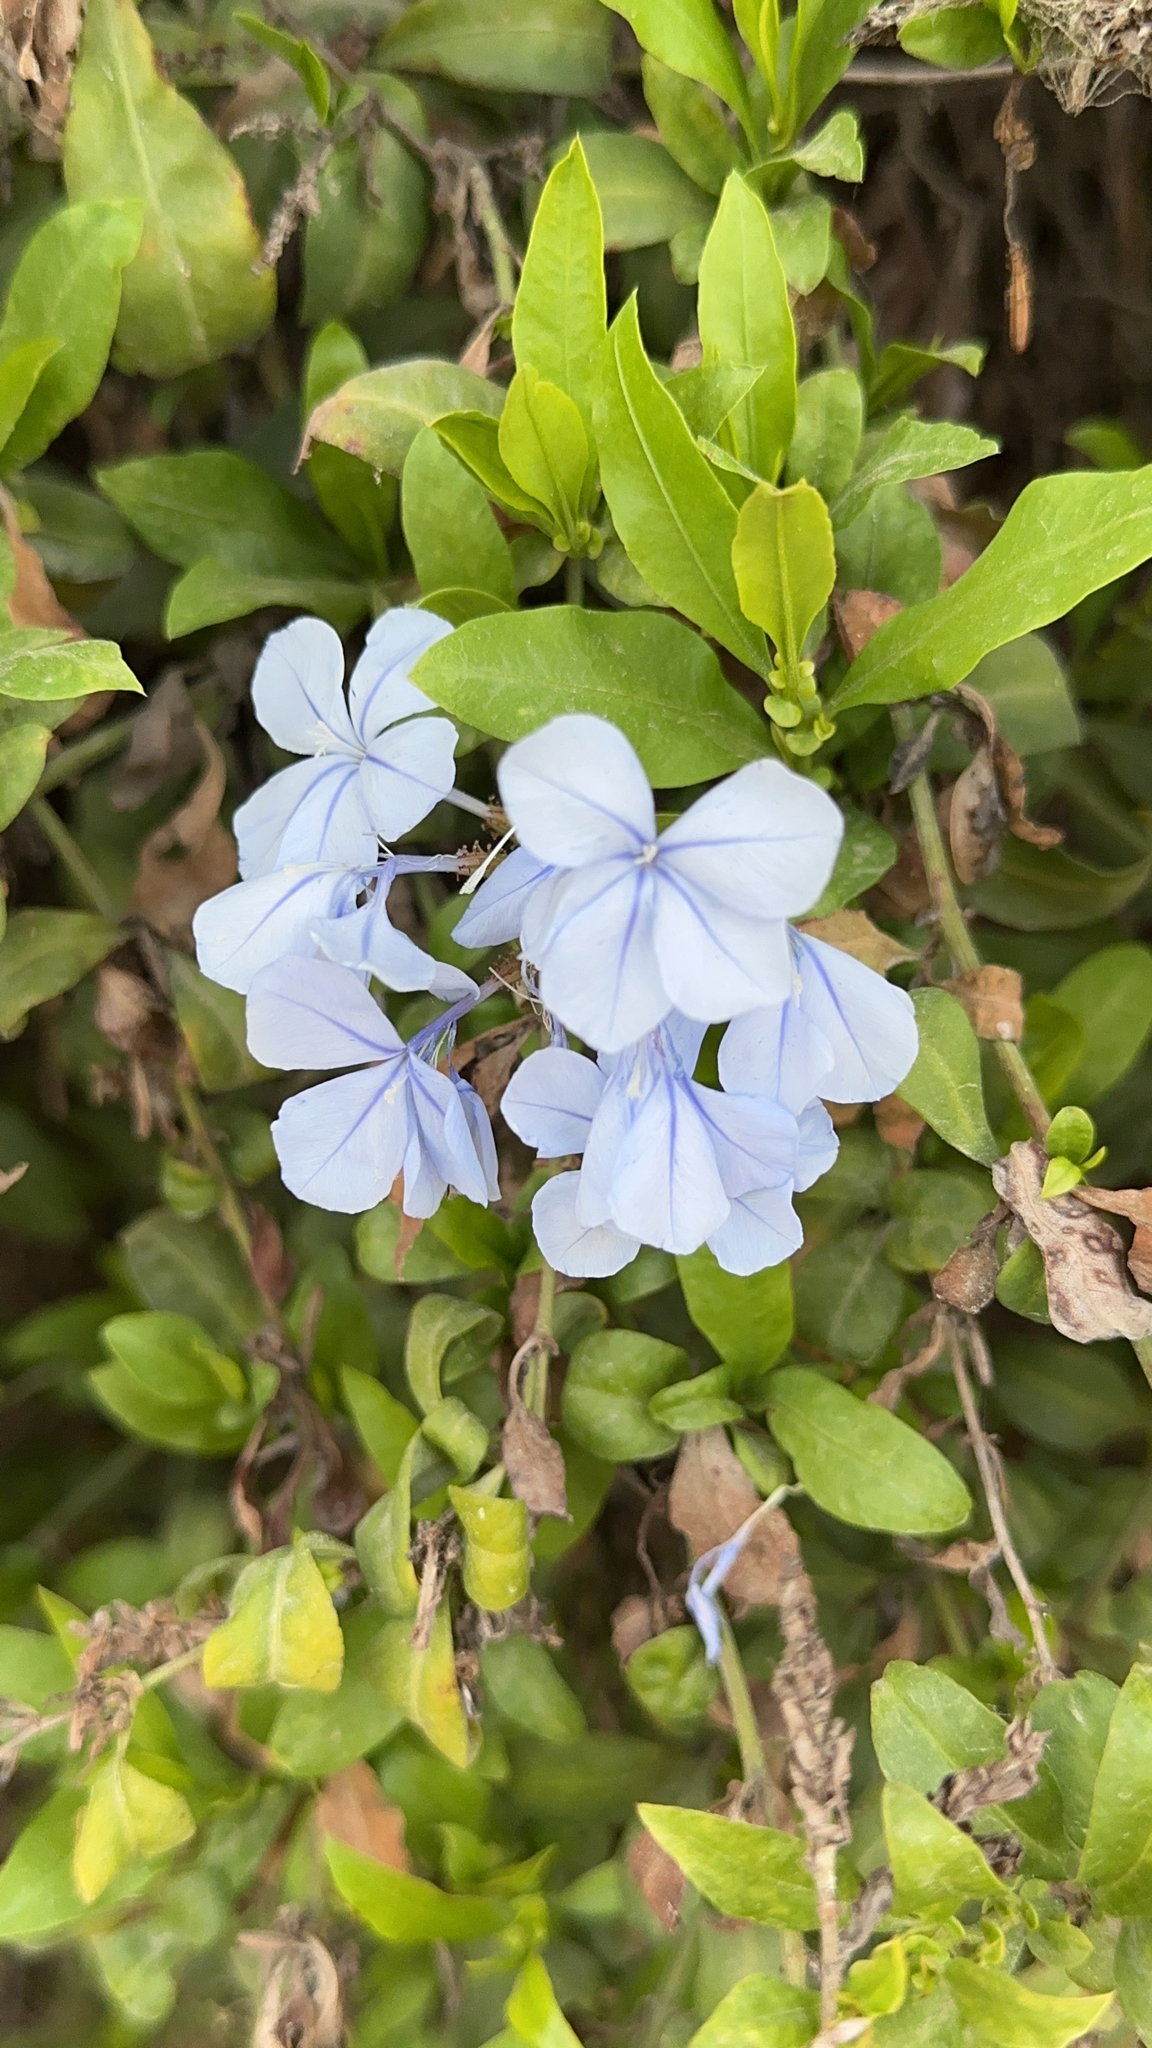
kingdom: Plantae
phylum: Tracheophyta
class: Magnoliopsida
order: Caryophyllales
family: Plumbaginaceae
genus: Plumbago
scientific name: Plumbago auriculata
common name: Cape leadwort
